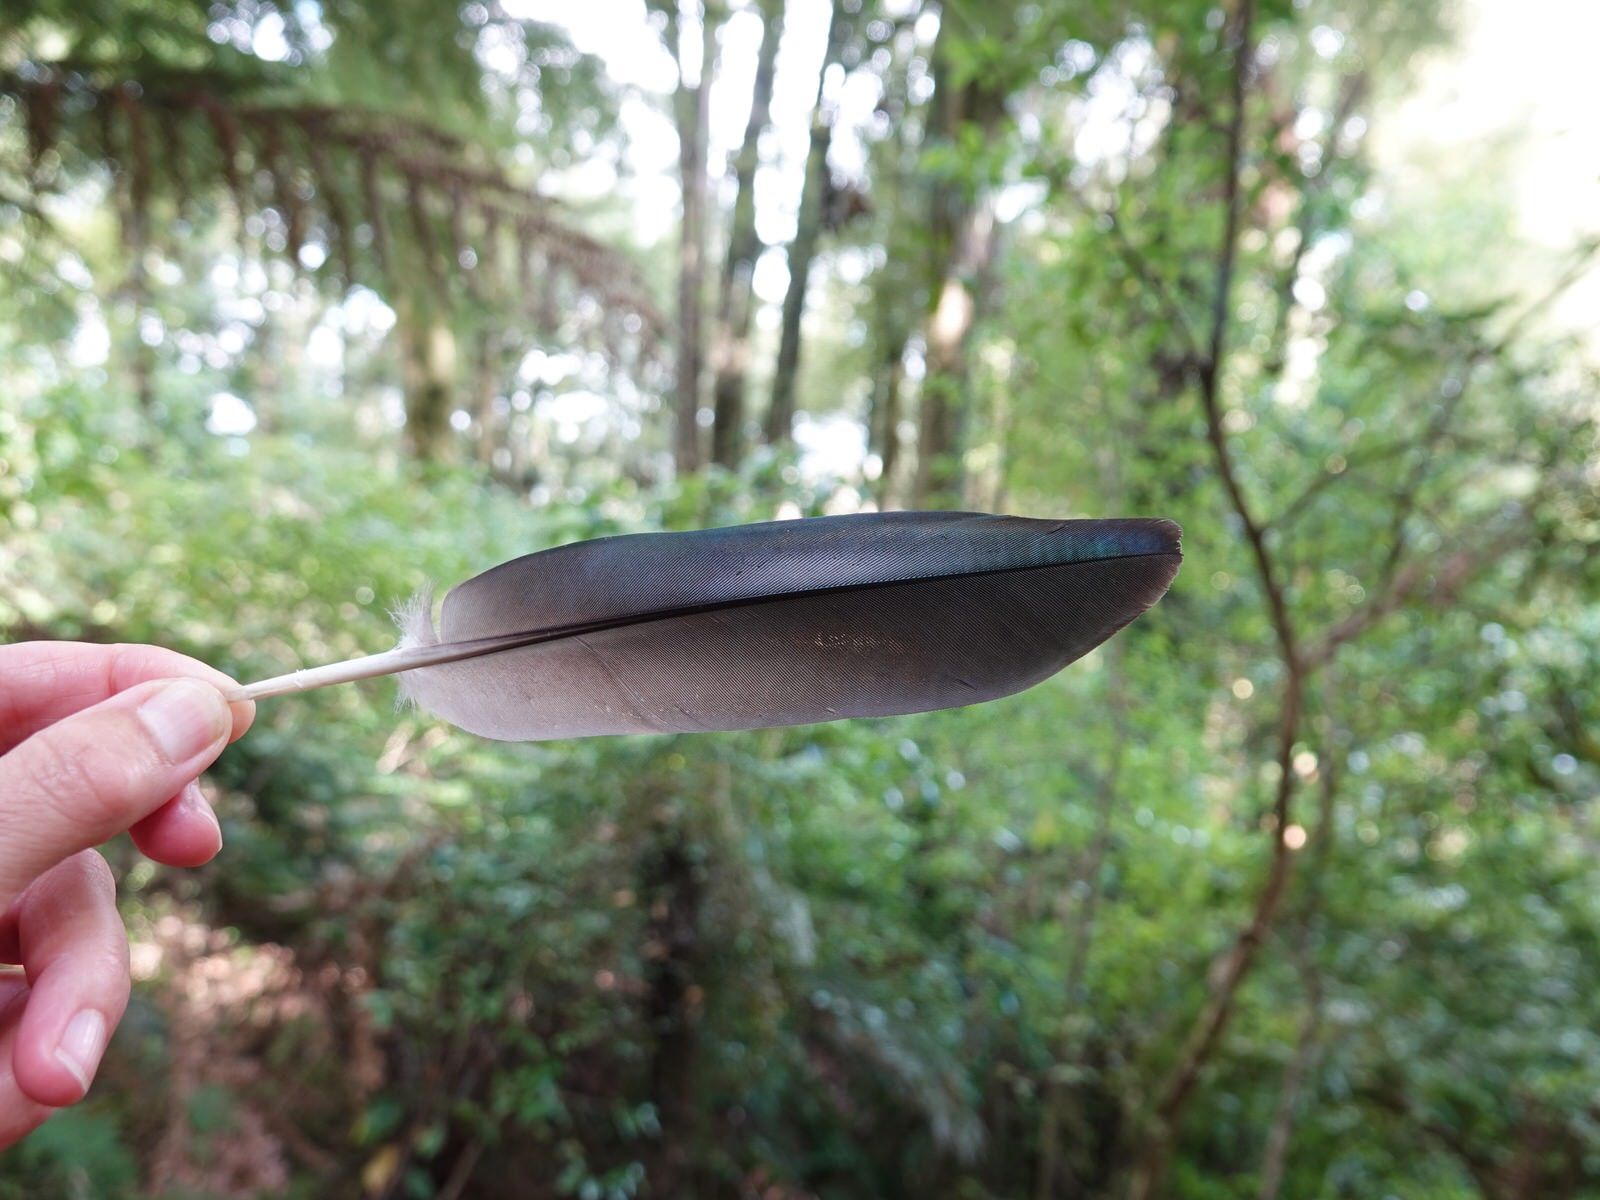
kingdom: Animalia
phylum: Chordata
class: Aves
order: Columbiformes
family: Columbidae
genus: Hemiphaga
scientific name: Hemiphaga novaeseelandiae
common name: New zealand pigeon
